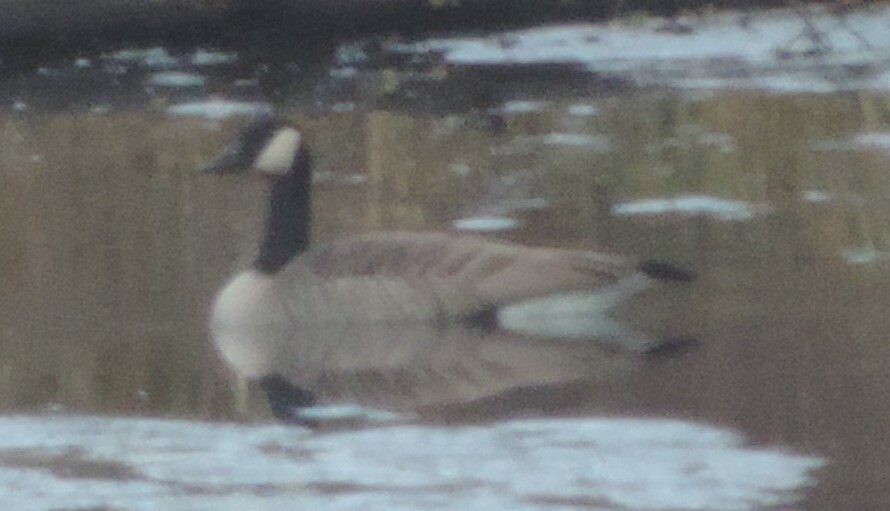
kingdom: Animalia
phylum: Chordata
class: Aves
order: Anseriformes
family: Anatidae
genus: Branta
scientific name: Branta canadensis
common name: Canada goose
